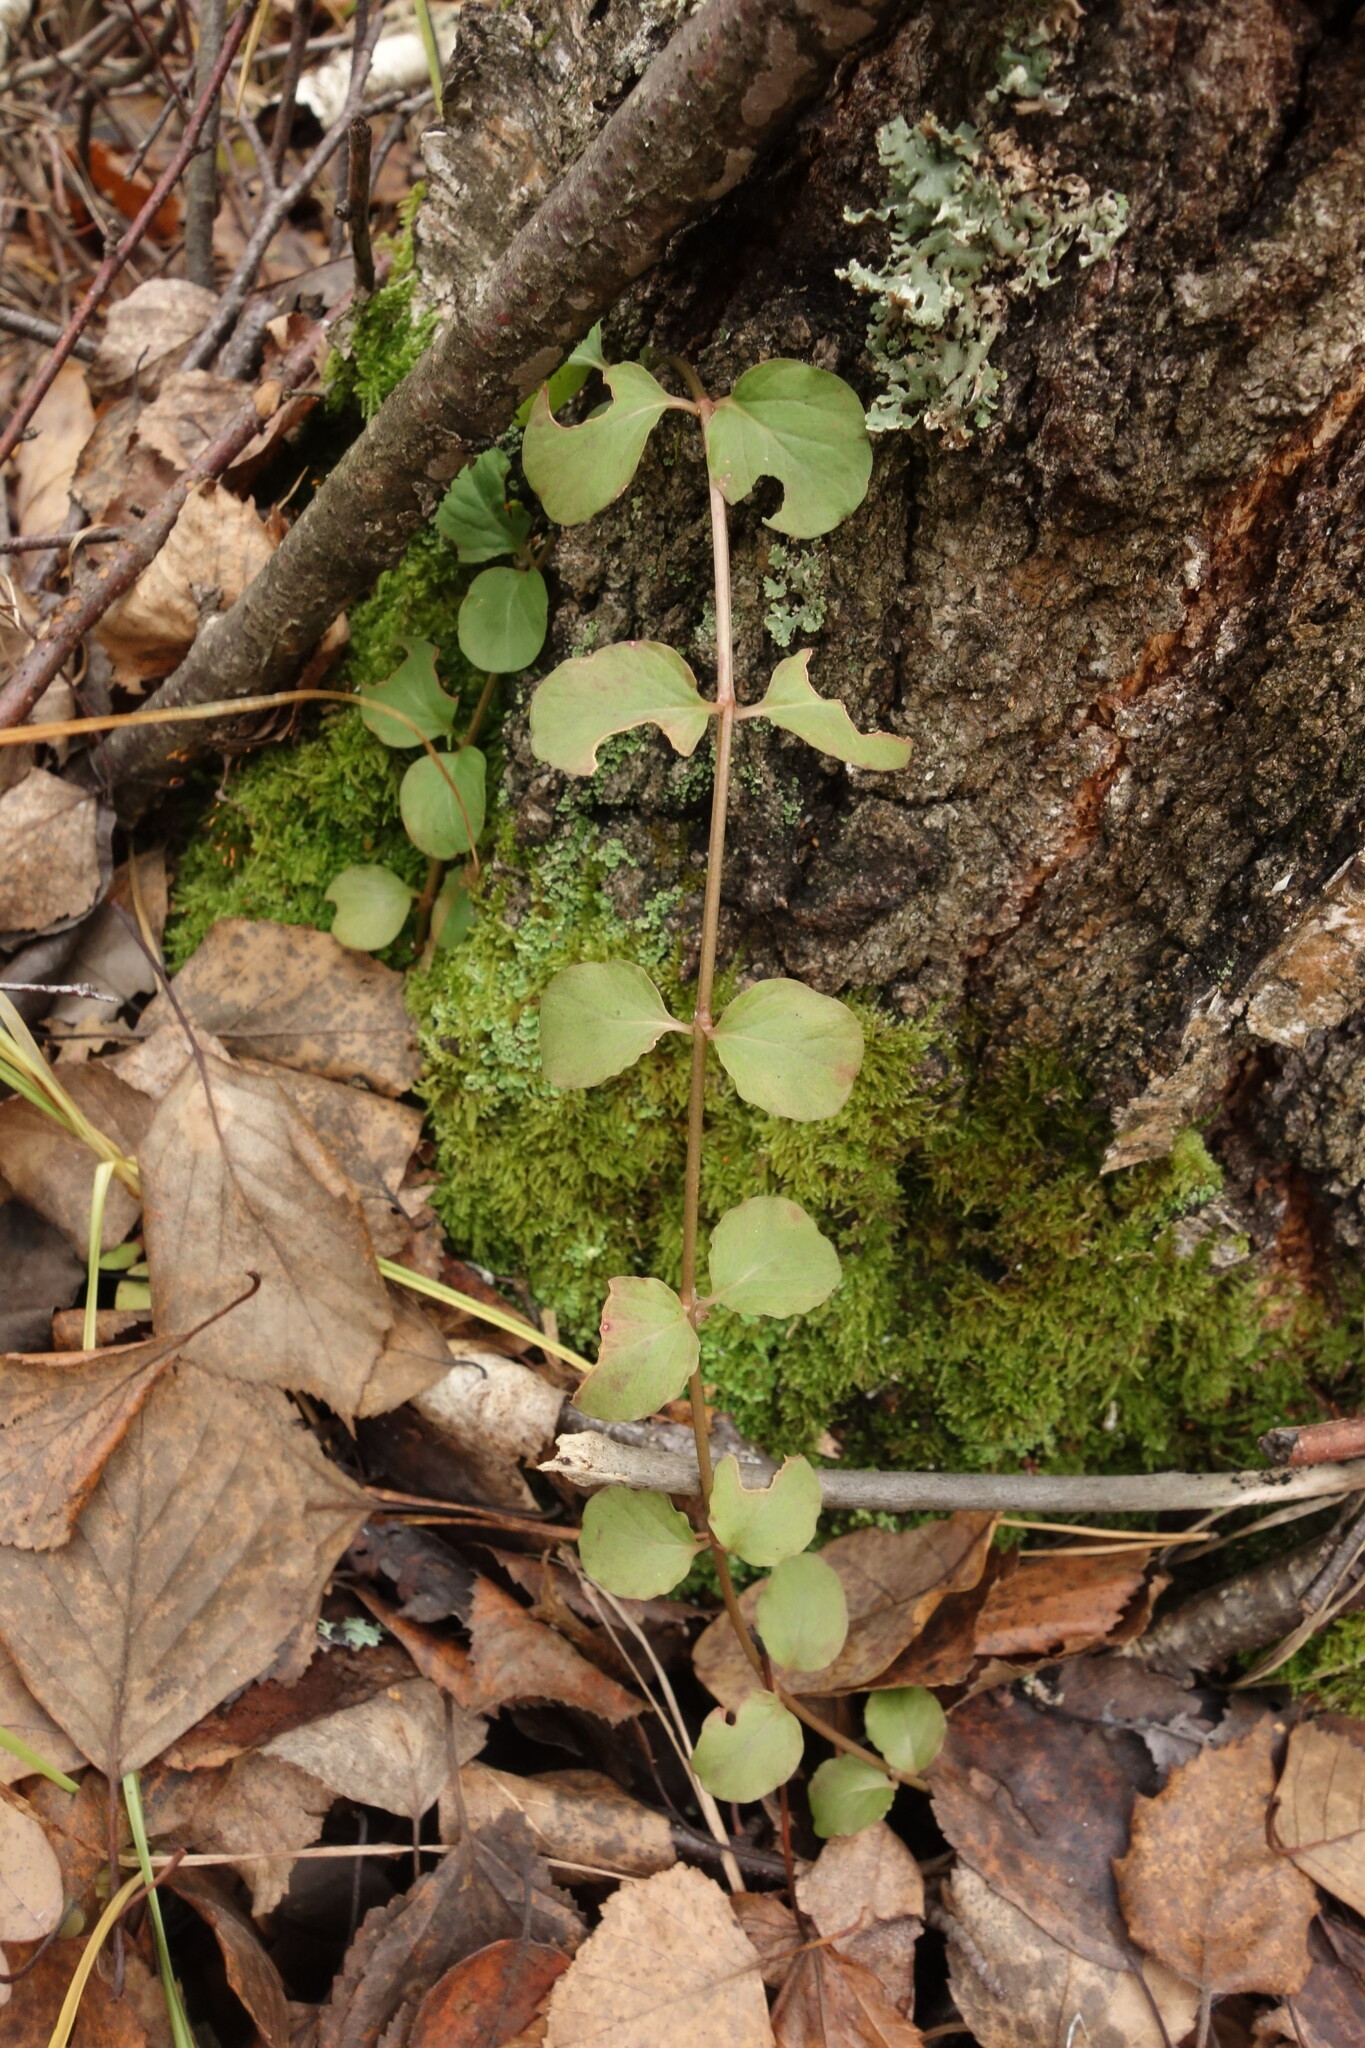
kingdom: Plantae
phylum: Tracheophyta
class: Magnoliopsida
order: Ericales
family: Primulaceae
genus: Lysimachia
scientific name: Lysimachia nummularia
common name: Moneywort
